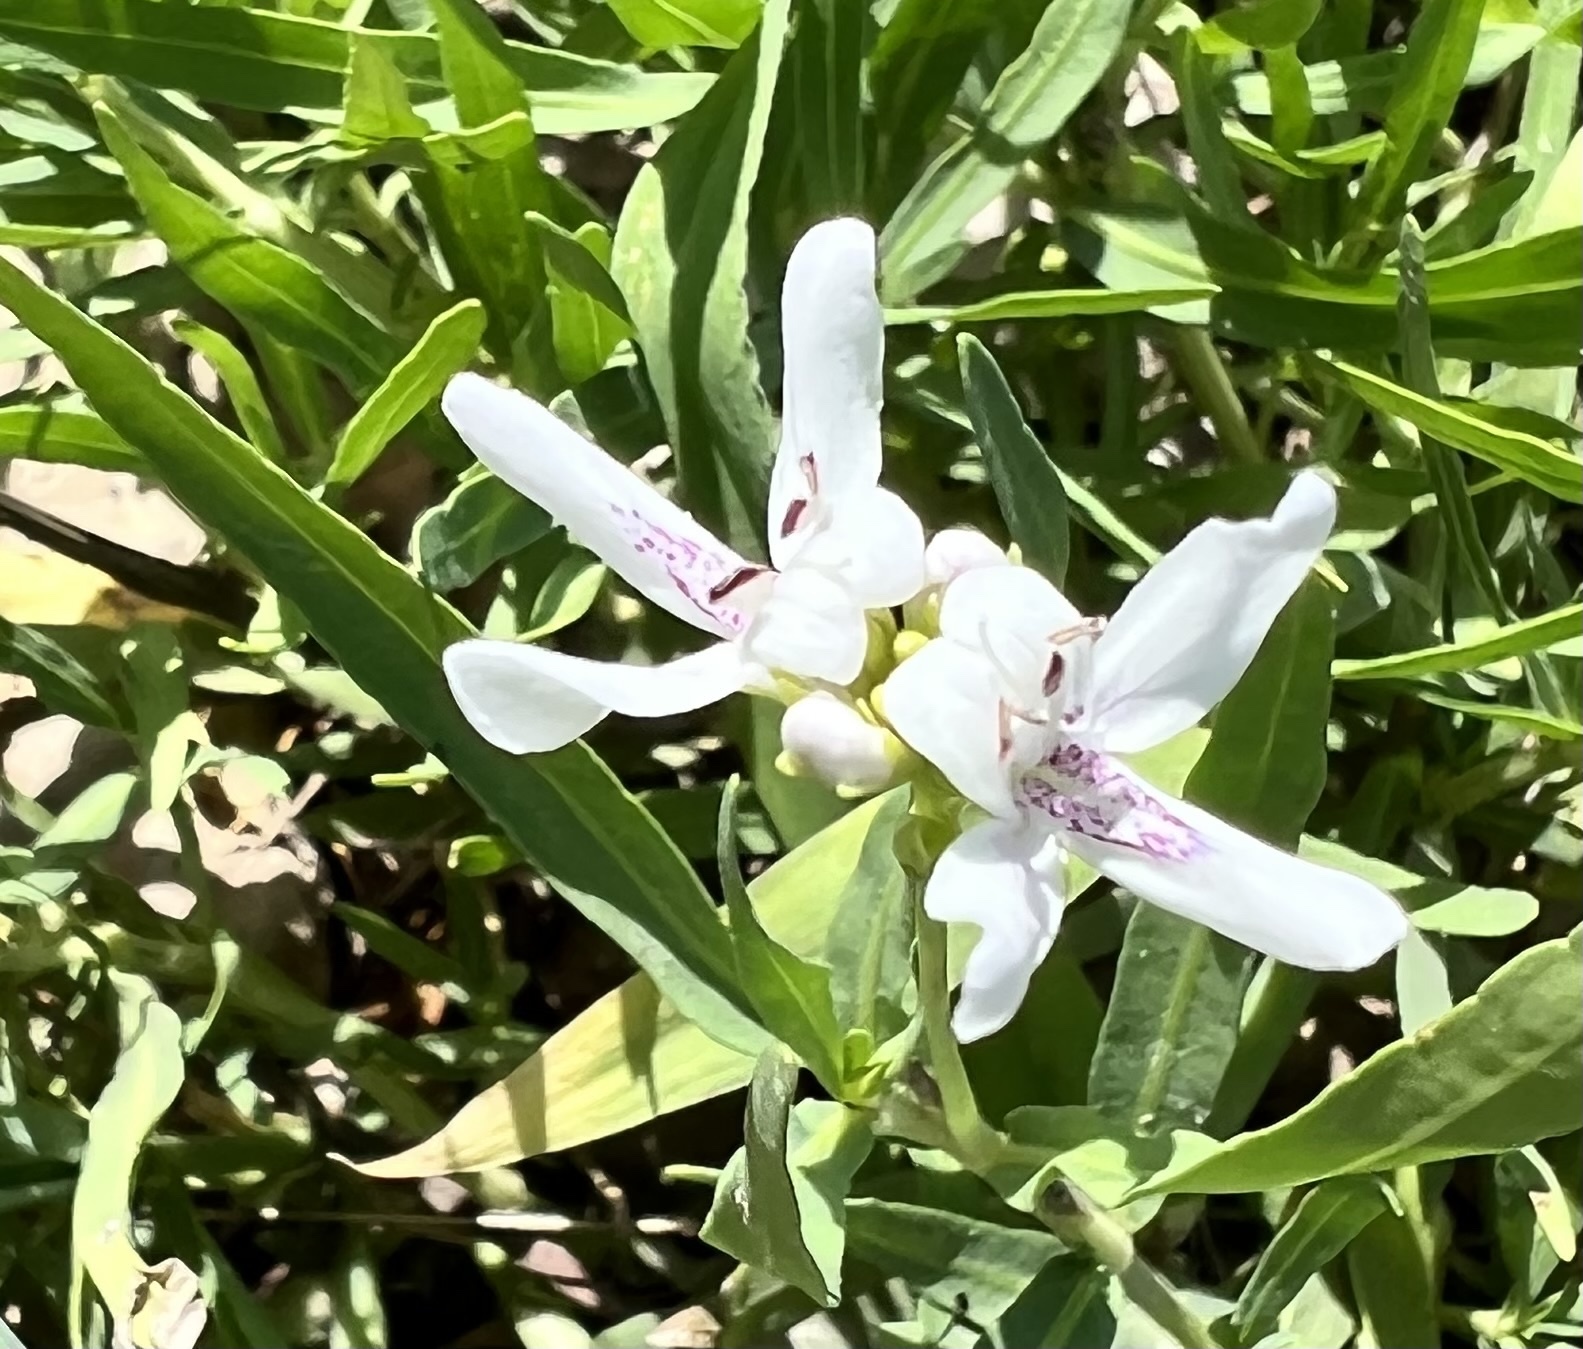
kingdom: Plantae
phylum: Tracheophyta
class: Magnoliopsida
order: Lamiales
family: Acanthaceae
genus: Dianthera
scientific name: Dianthera americana
